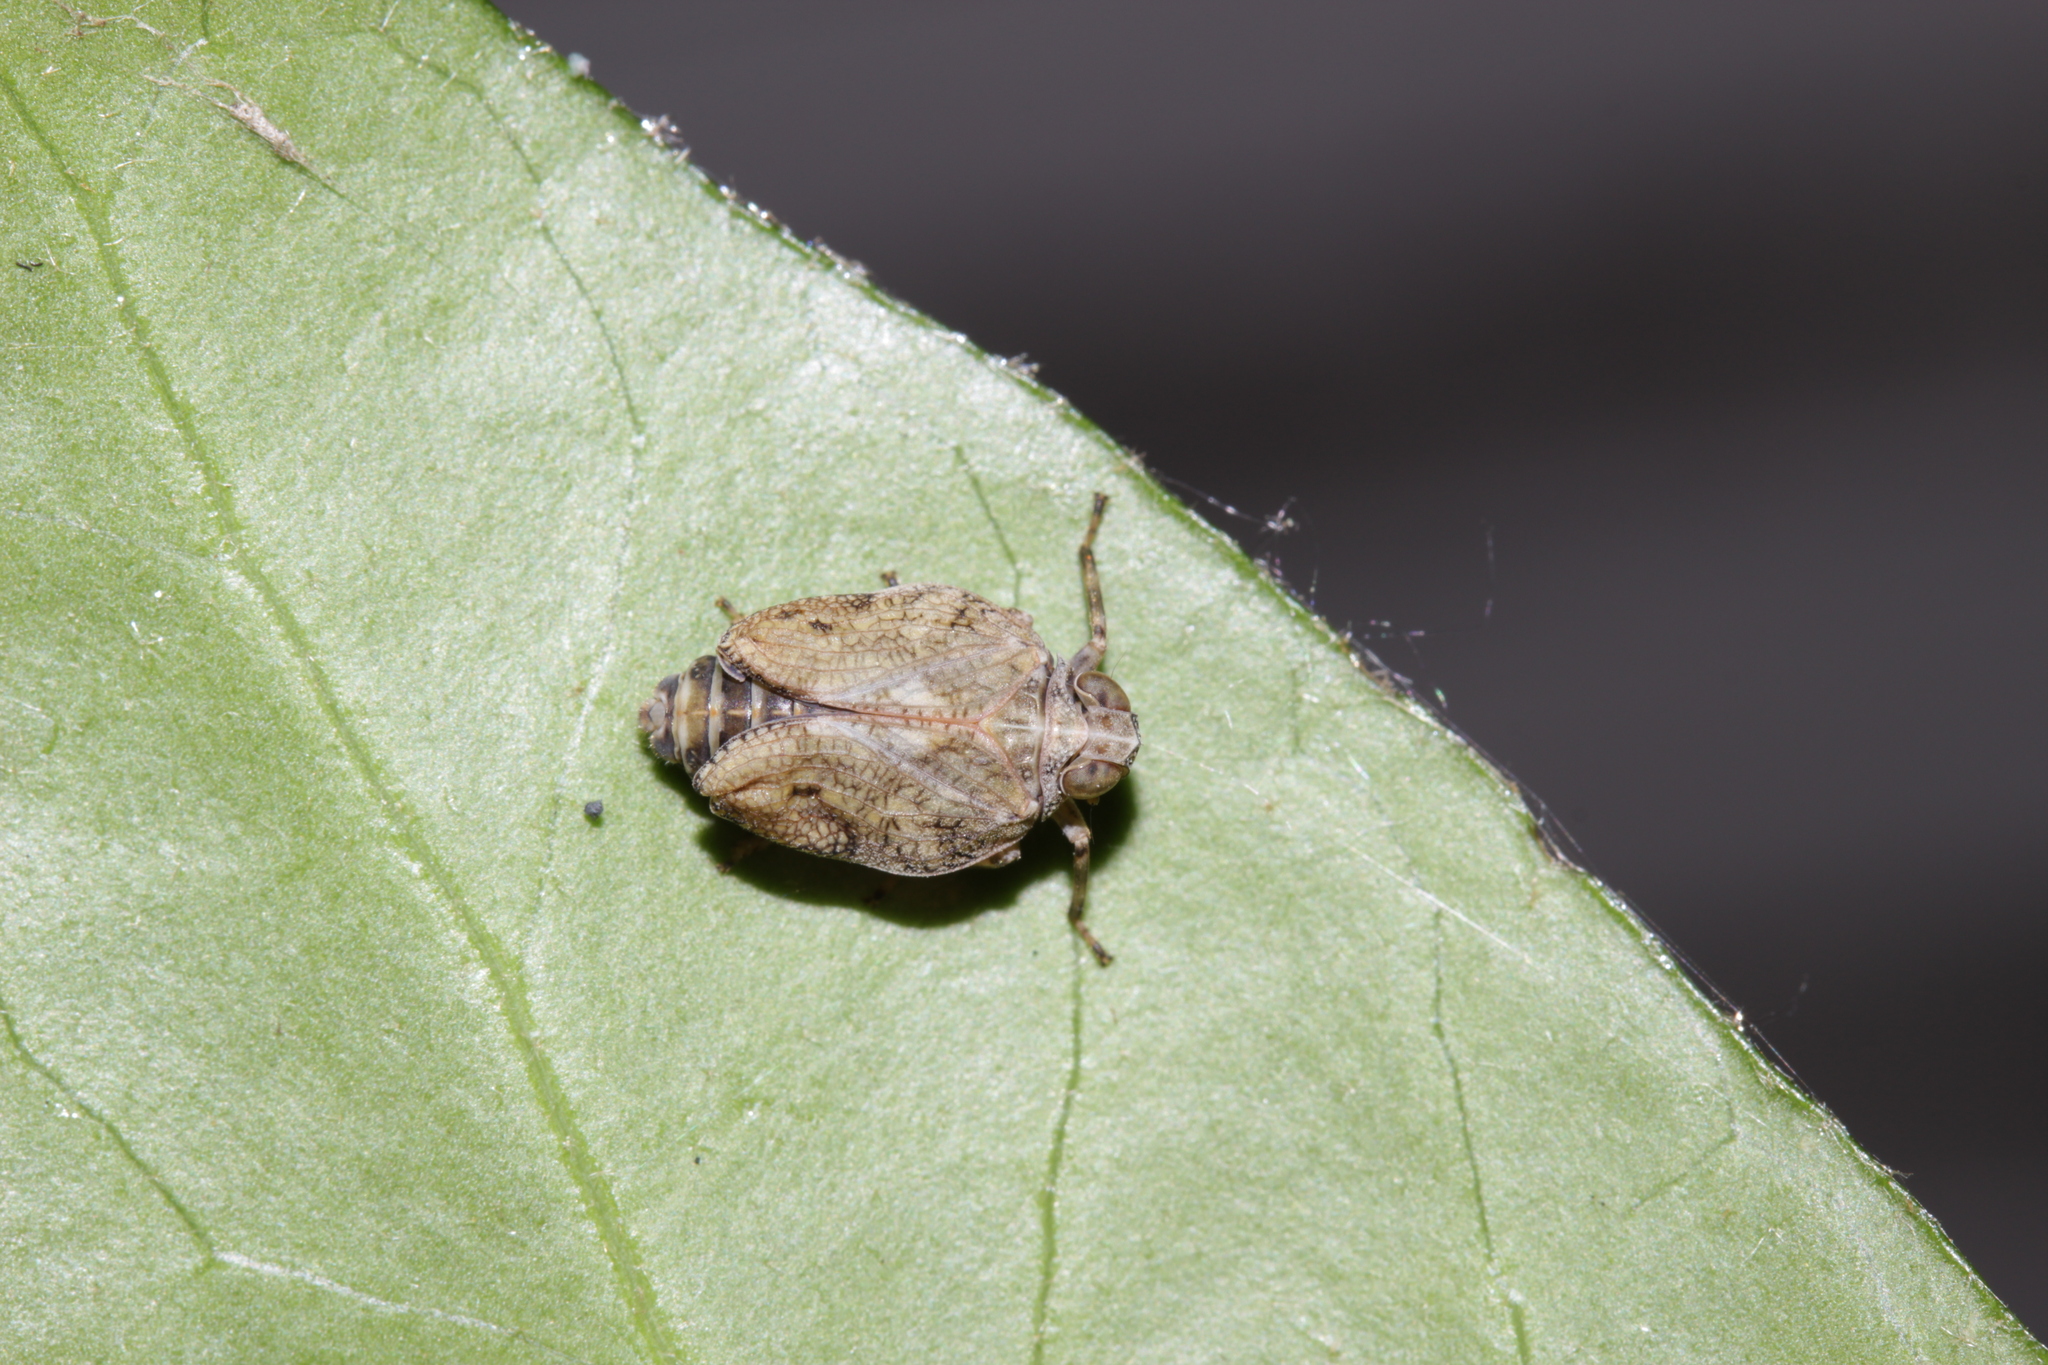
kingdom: Animalia
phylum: Arthropoda
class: Insecta
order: Hemiptera
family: Issidae
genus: Issus
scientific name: Issus coleoptratus
